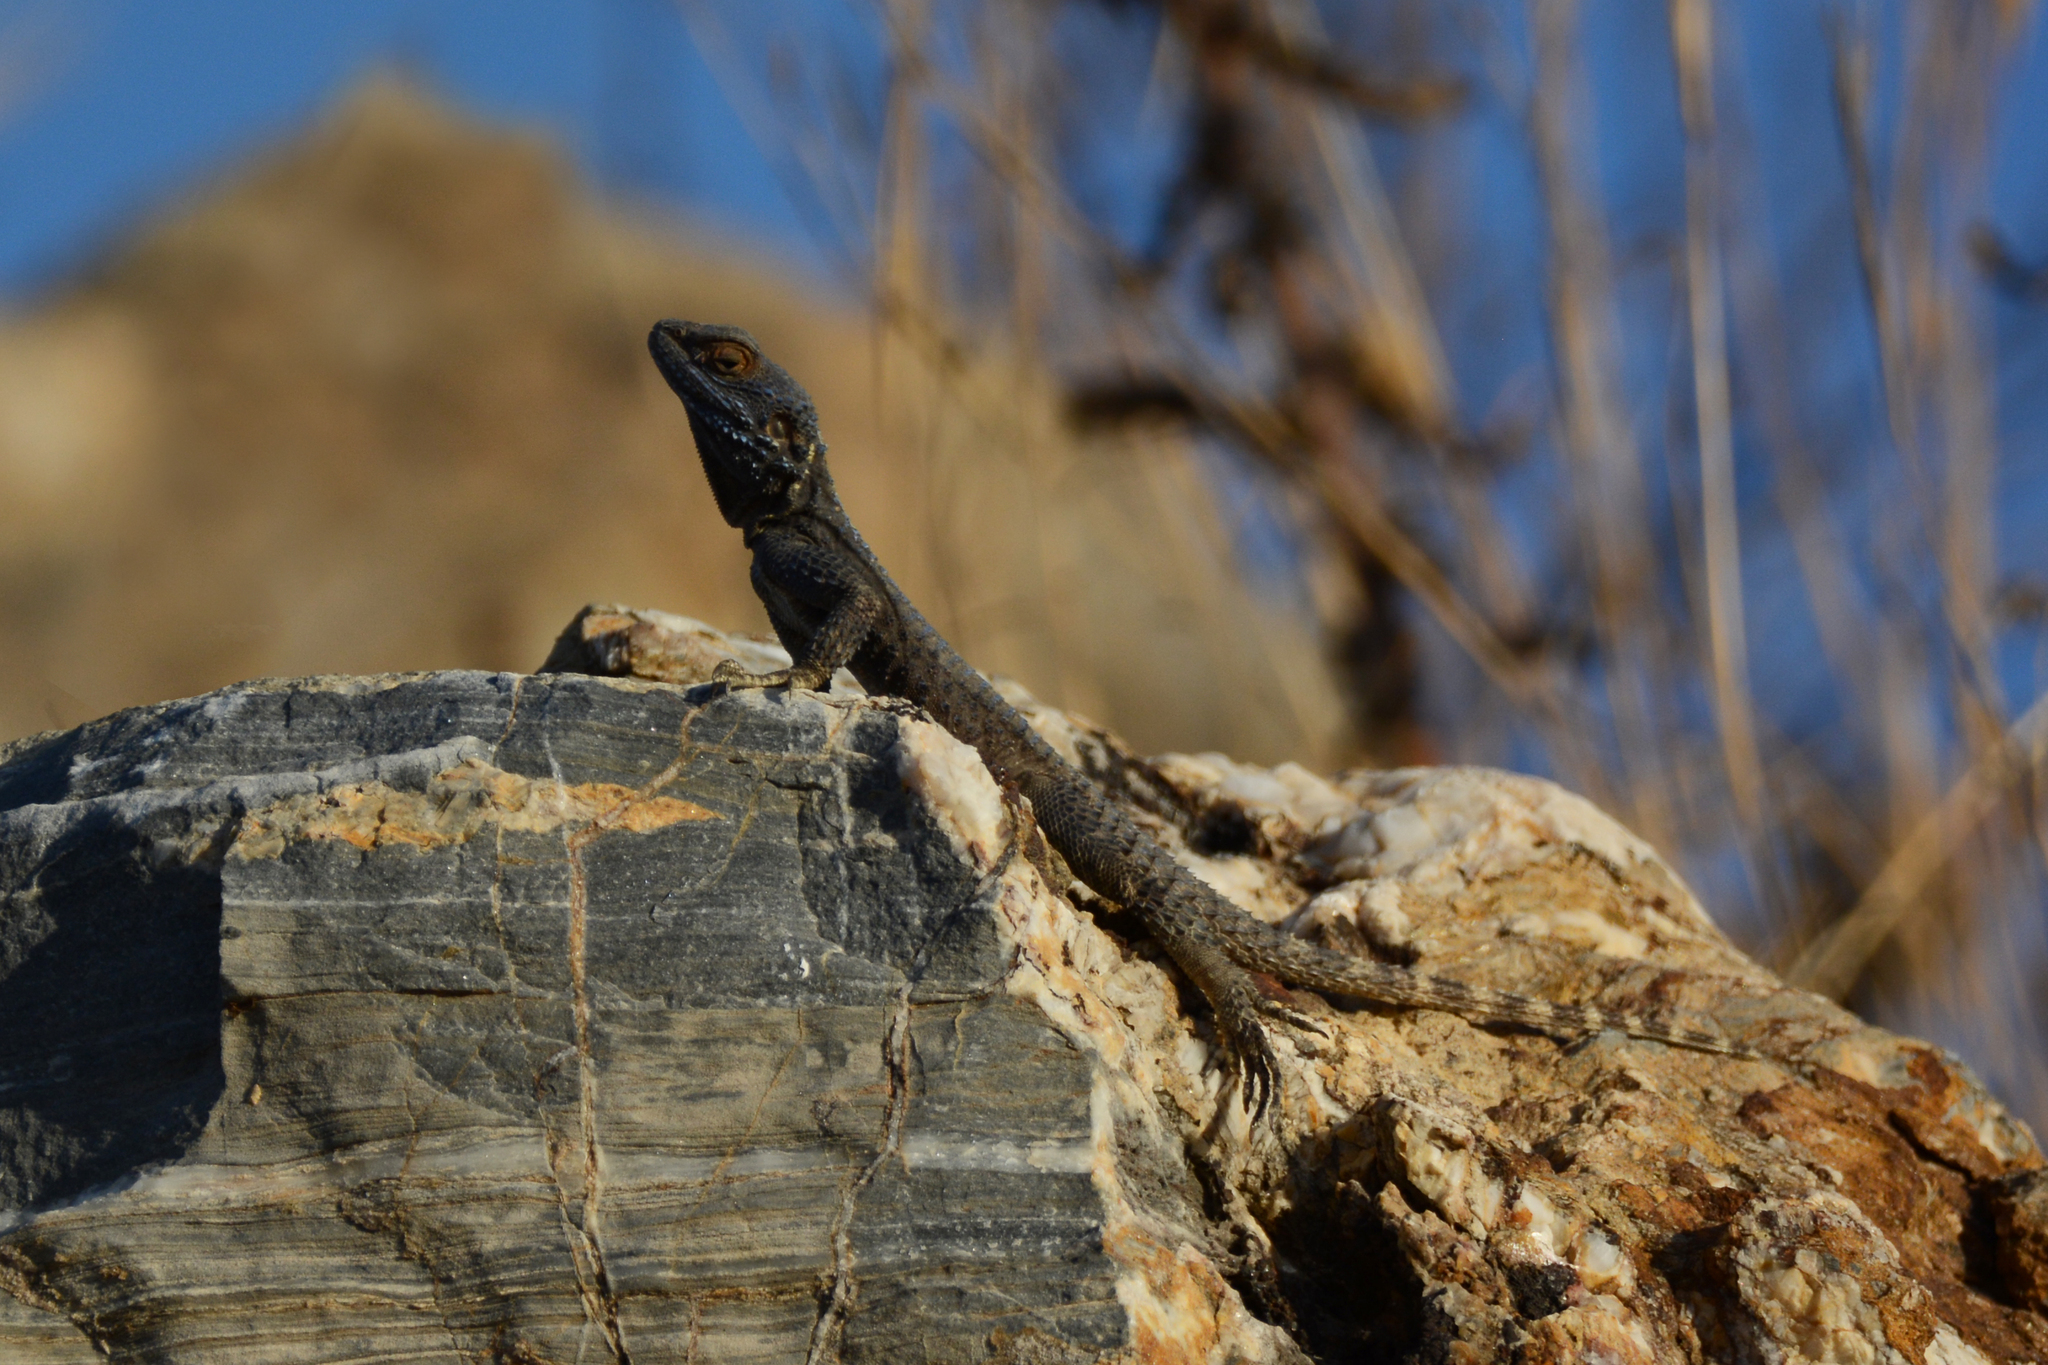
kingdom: Animalia
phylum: Chordata
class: Squamata
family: Agamidae
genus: Stellagama
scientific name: Stellagama stellio
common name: Starred agama
